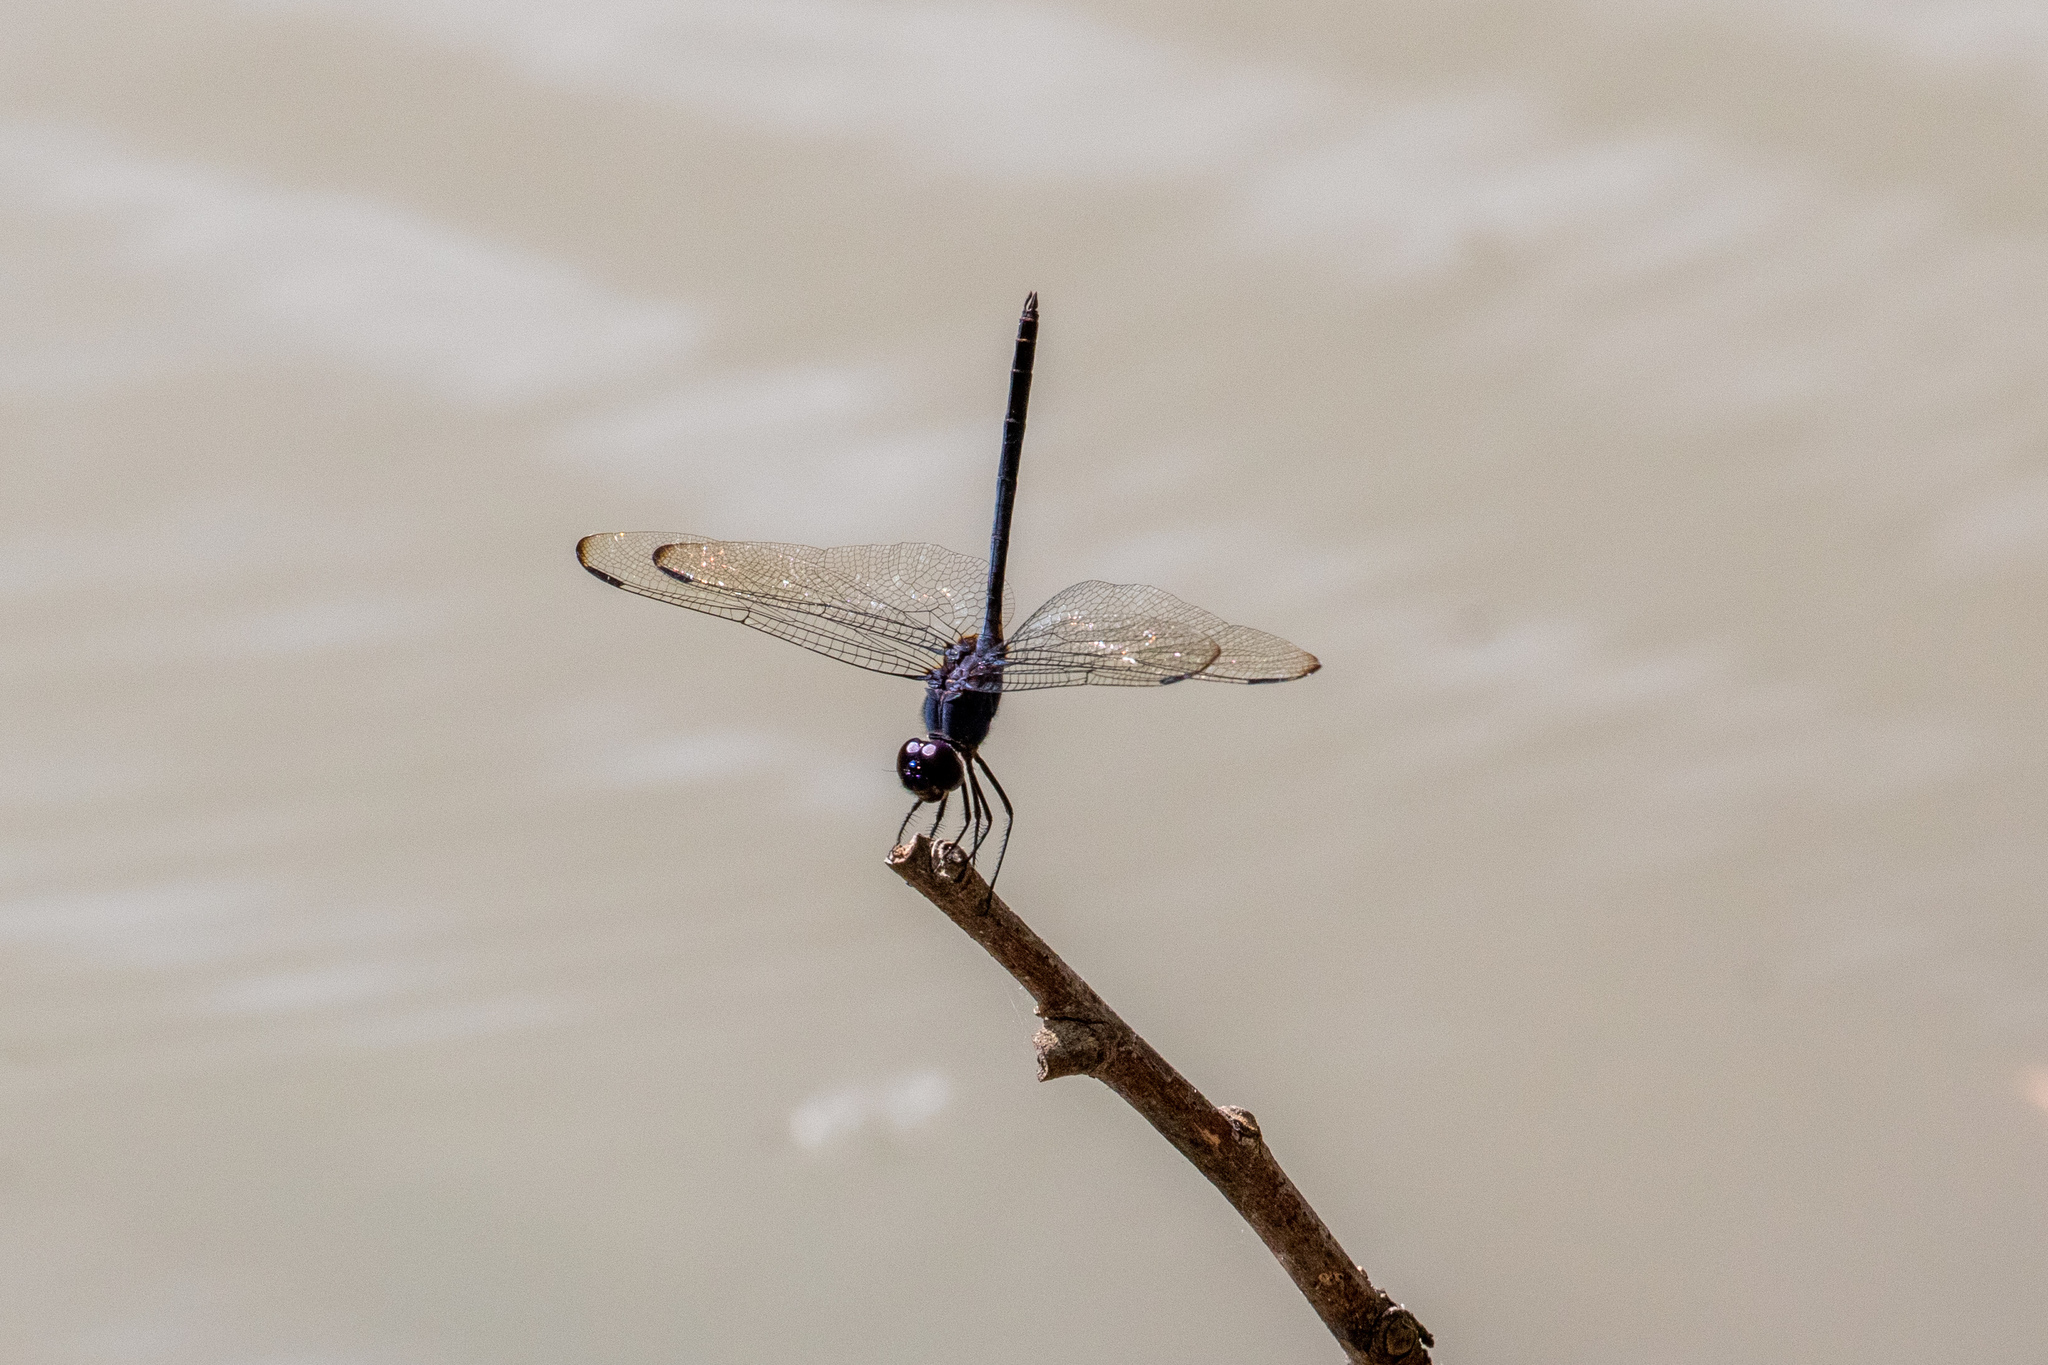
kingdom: Animalia
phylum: Arthropoda
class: Insecta
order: Odonata
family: Libellulidae
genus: Dythemis
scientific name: Dythemis nigrescens
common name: Black setwing
